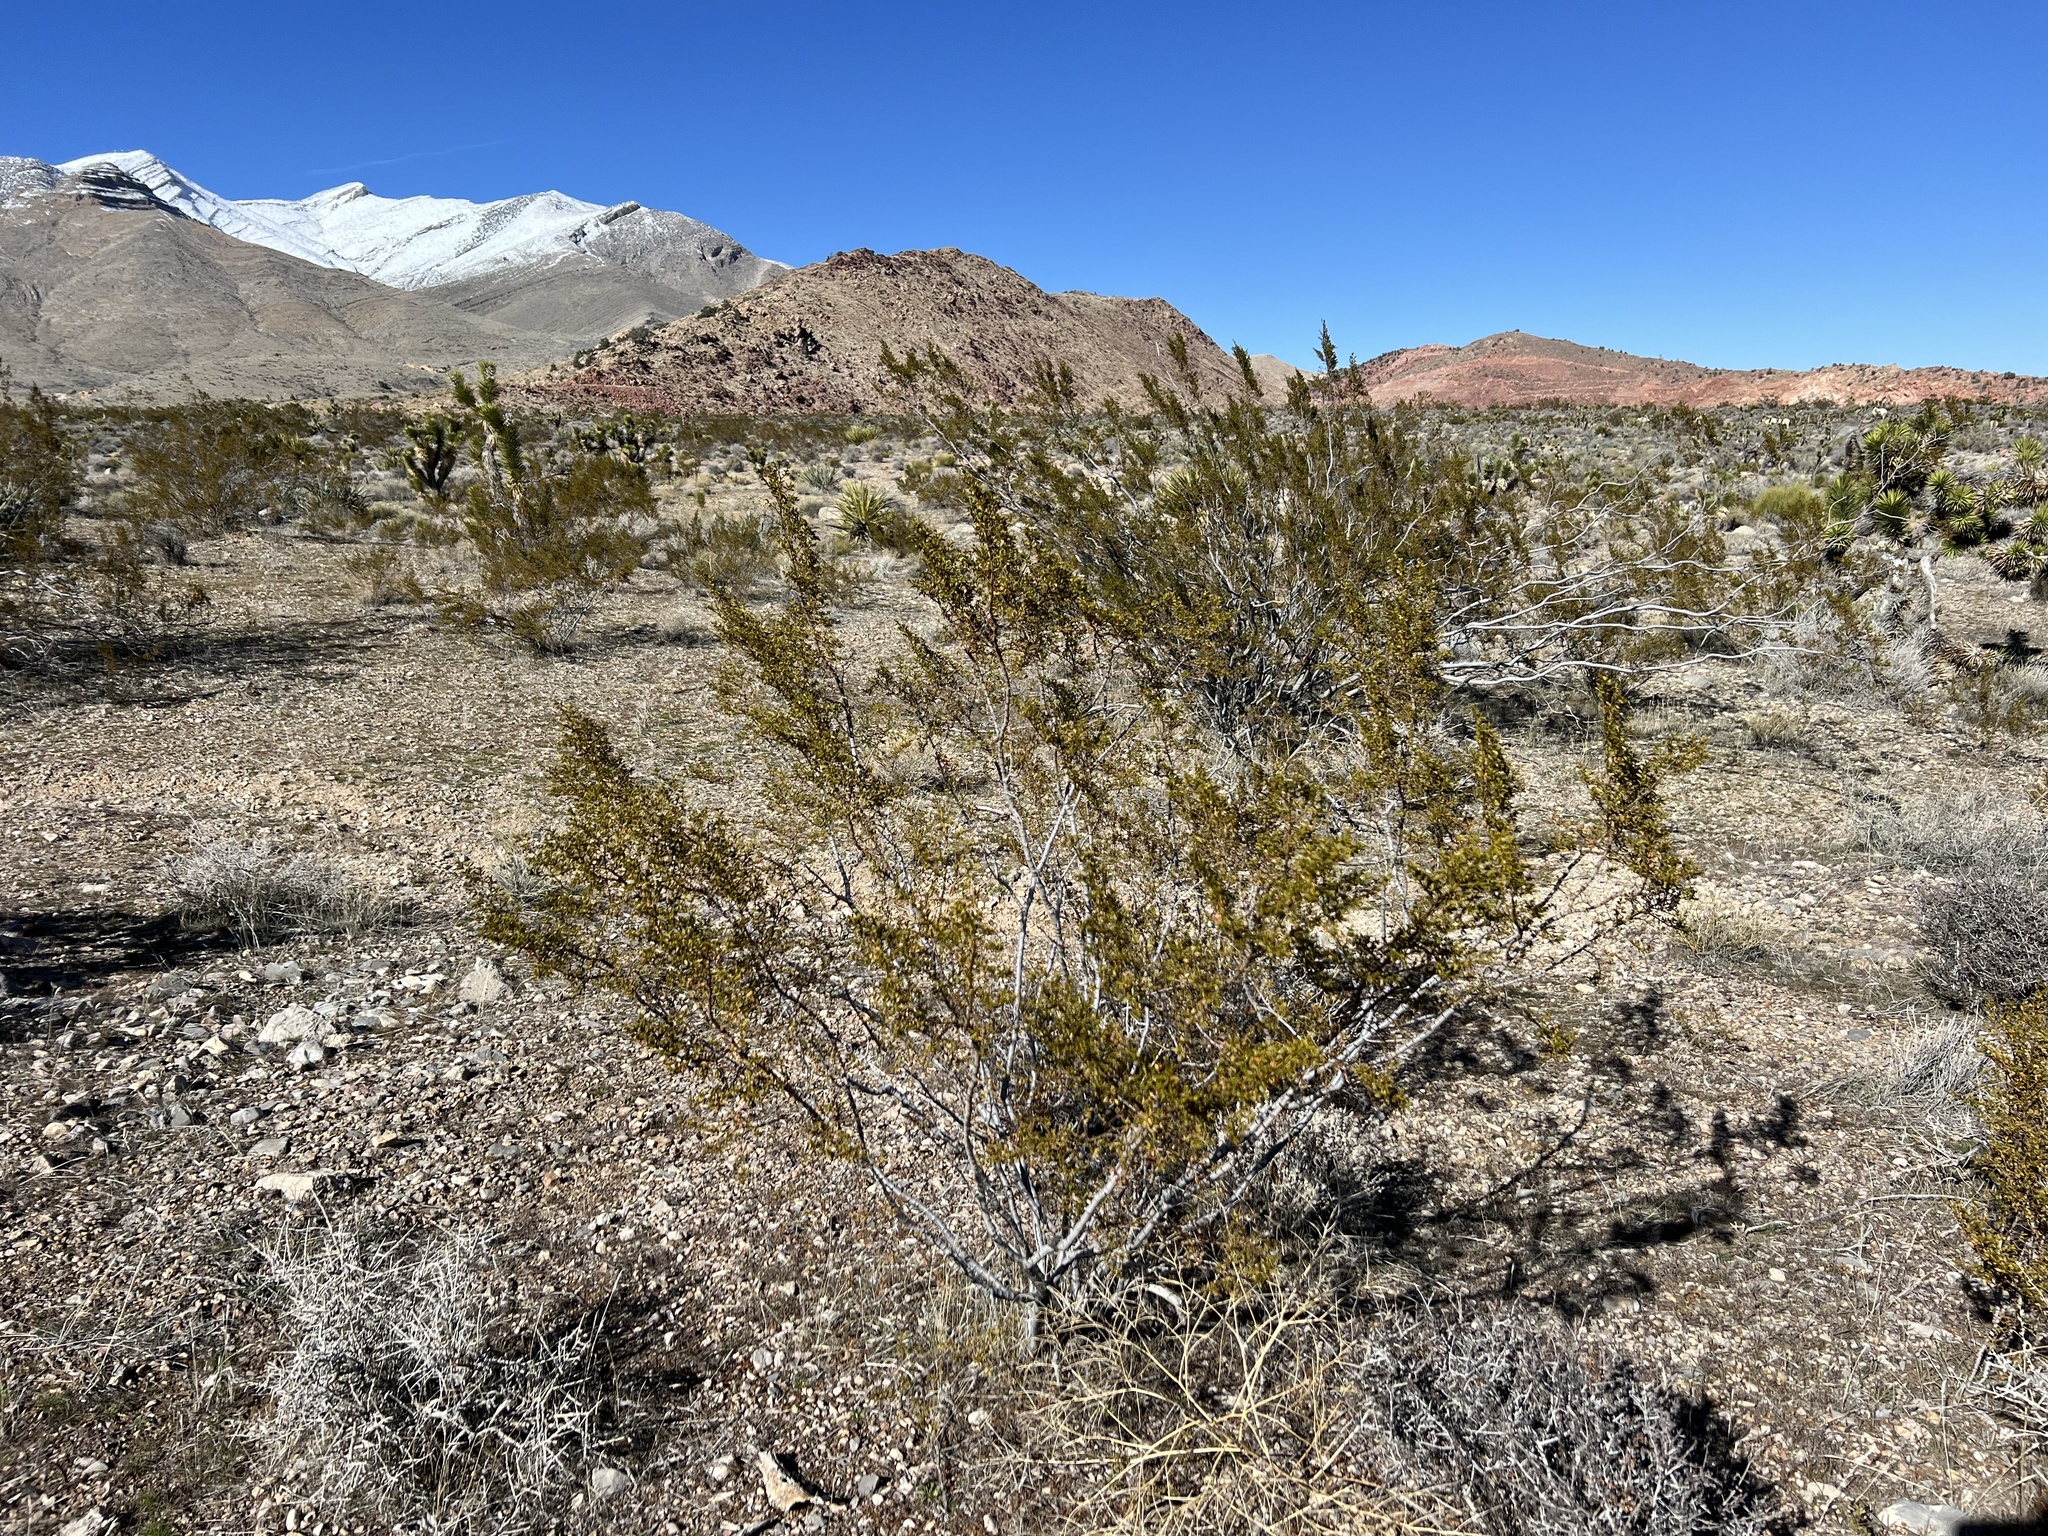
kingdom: Plantae
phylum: Tracheophyta
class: Magnoliopsida
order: Zygophyllales
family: Zygophyllaceae
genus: Larrea
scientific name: Larrea tridentata
